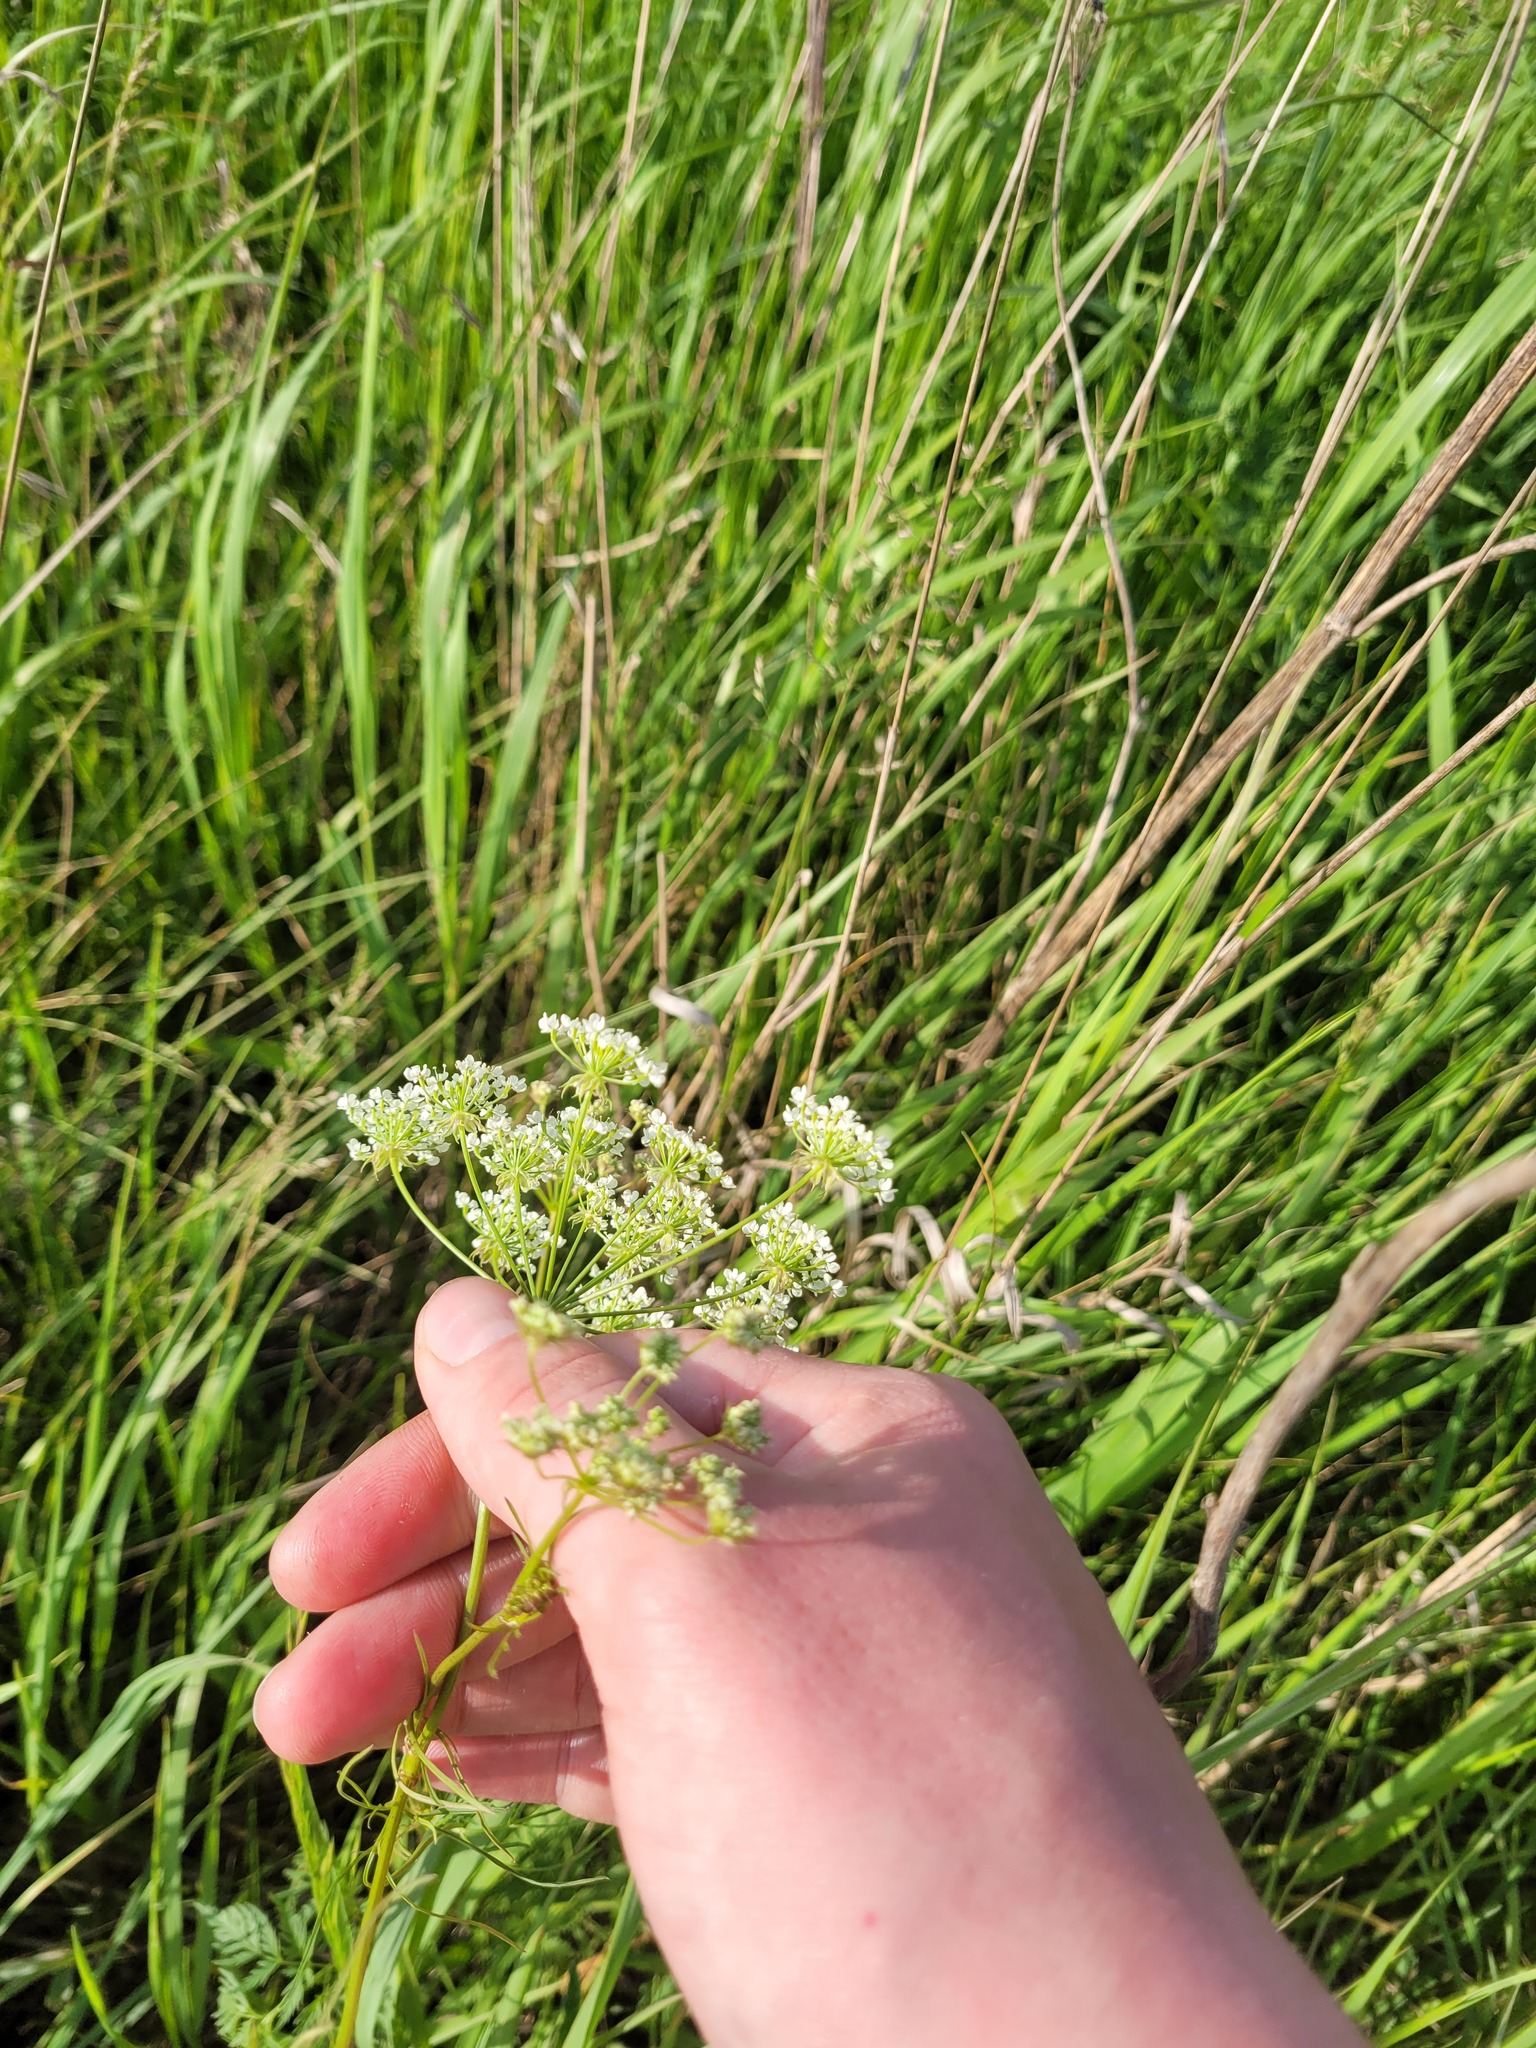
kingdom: Plantae
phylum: Tracheophyta
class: Magnoliopsida
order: Apiales
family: Apiaceae
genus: Chaerophyllum
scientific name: Chaerophyllum prescottii
